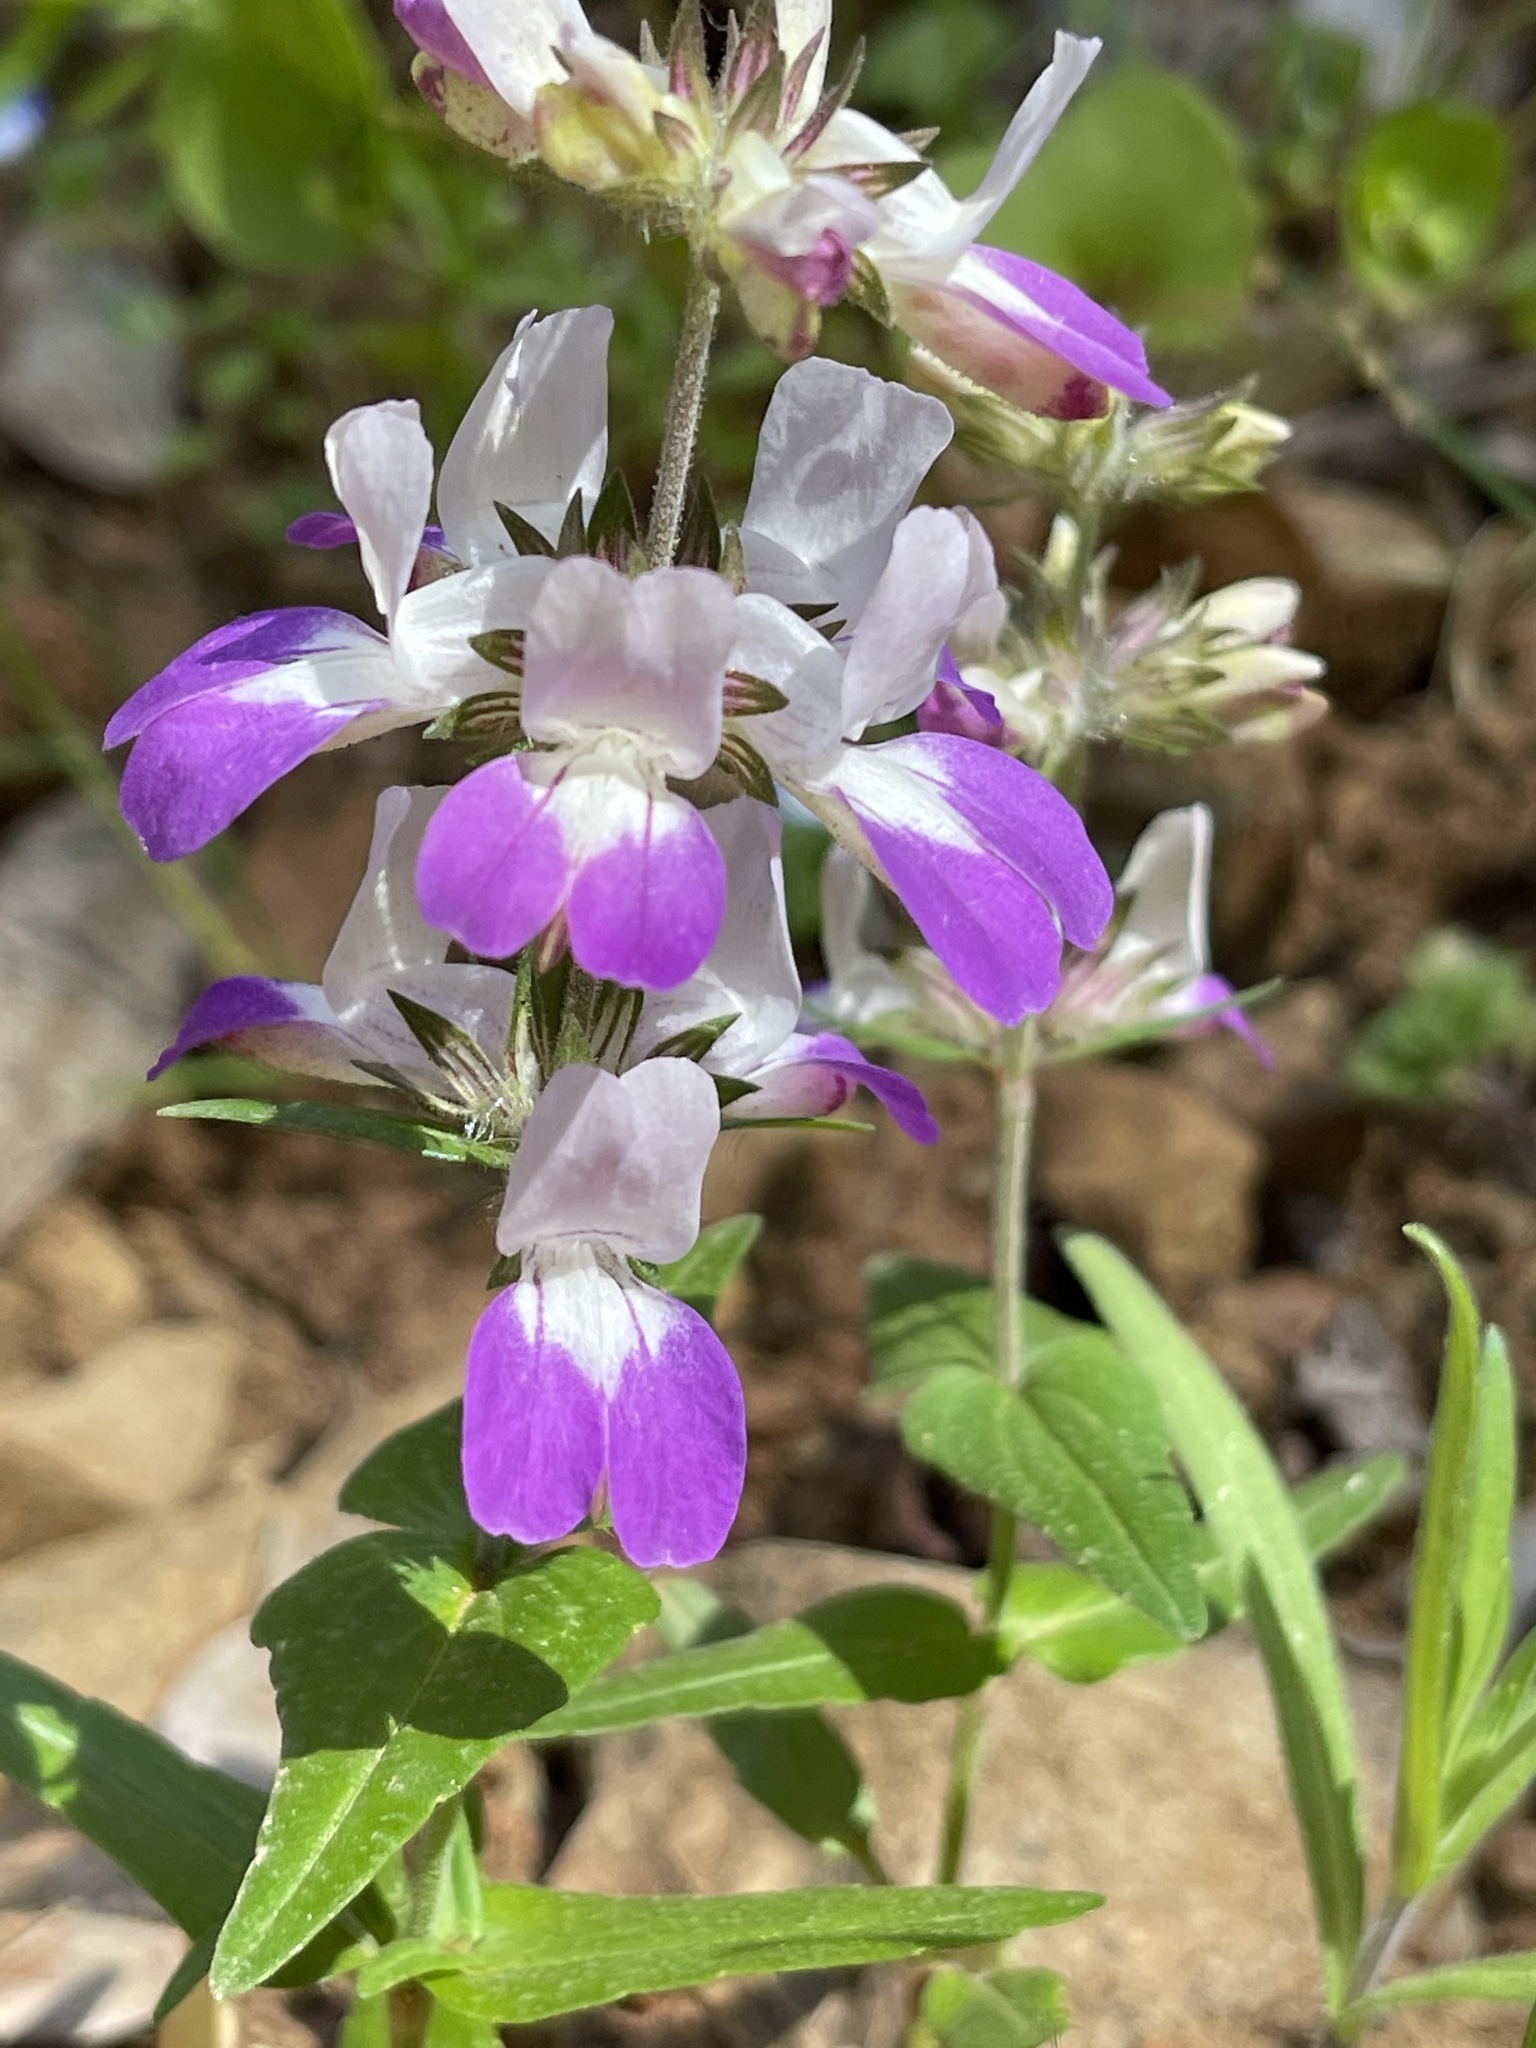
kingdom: Plantae
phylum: Tracheophyta
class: Magnoliopsida
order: Lamiales
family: Plantaginaceae
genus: Collinsia
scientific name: Collinsia heterophylla
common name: Chinese-houses
